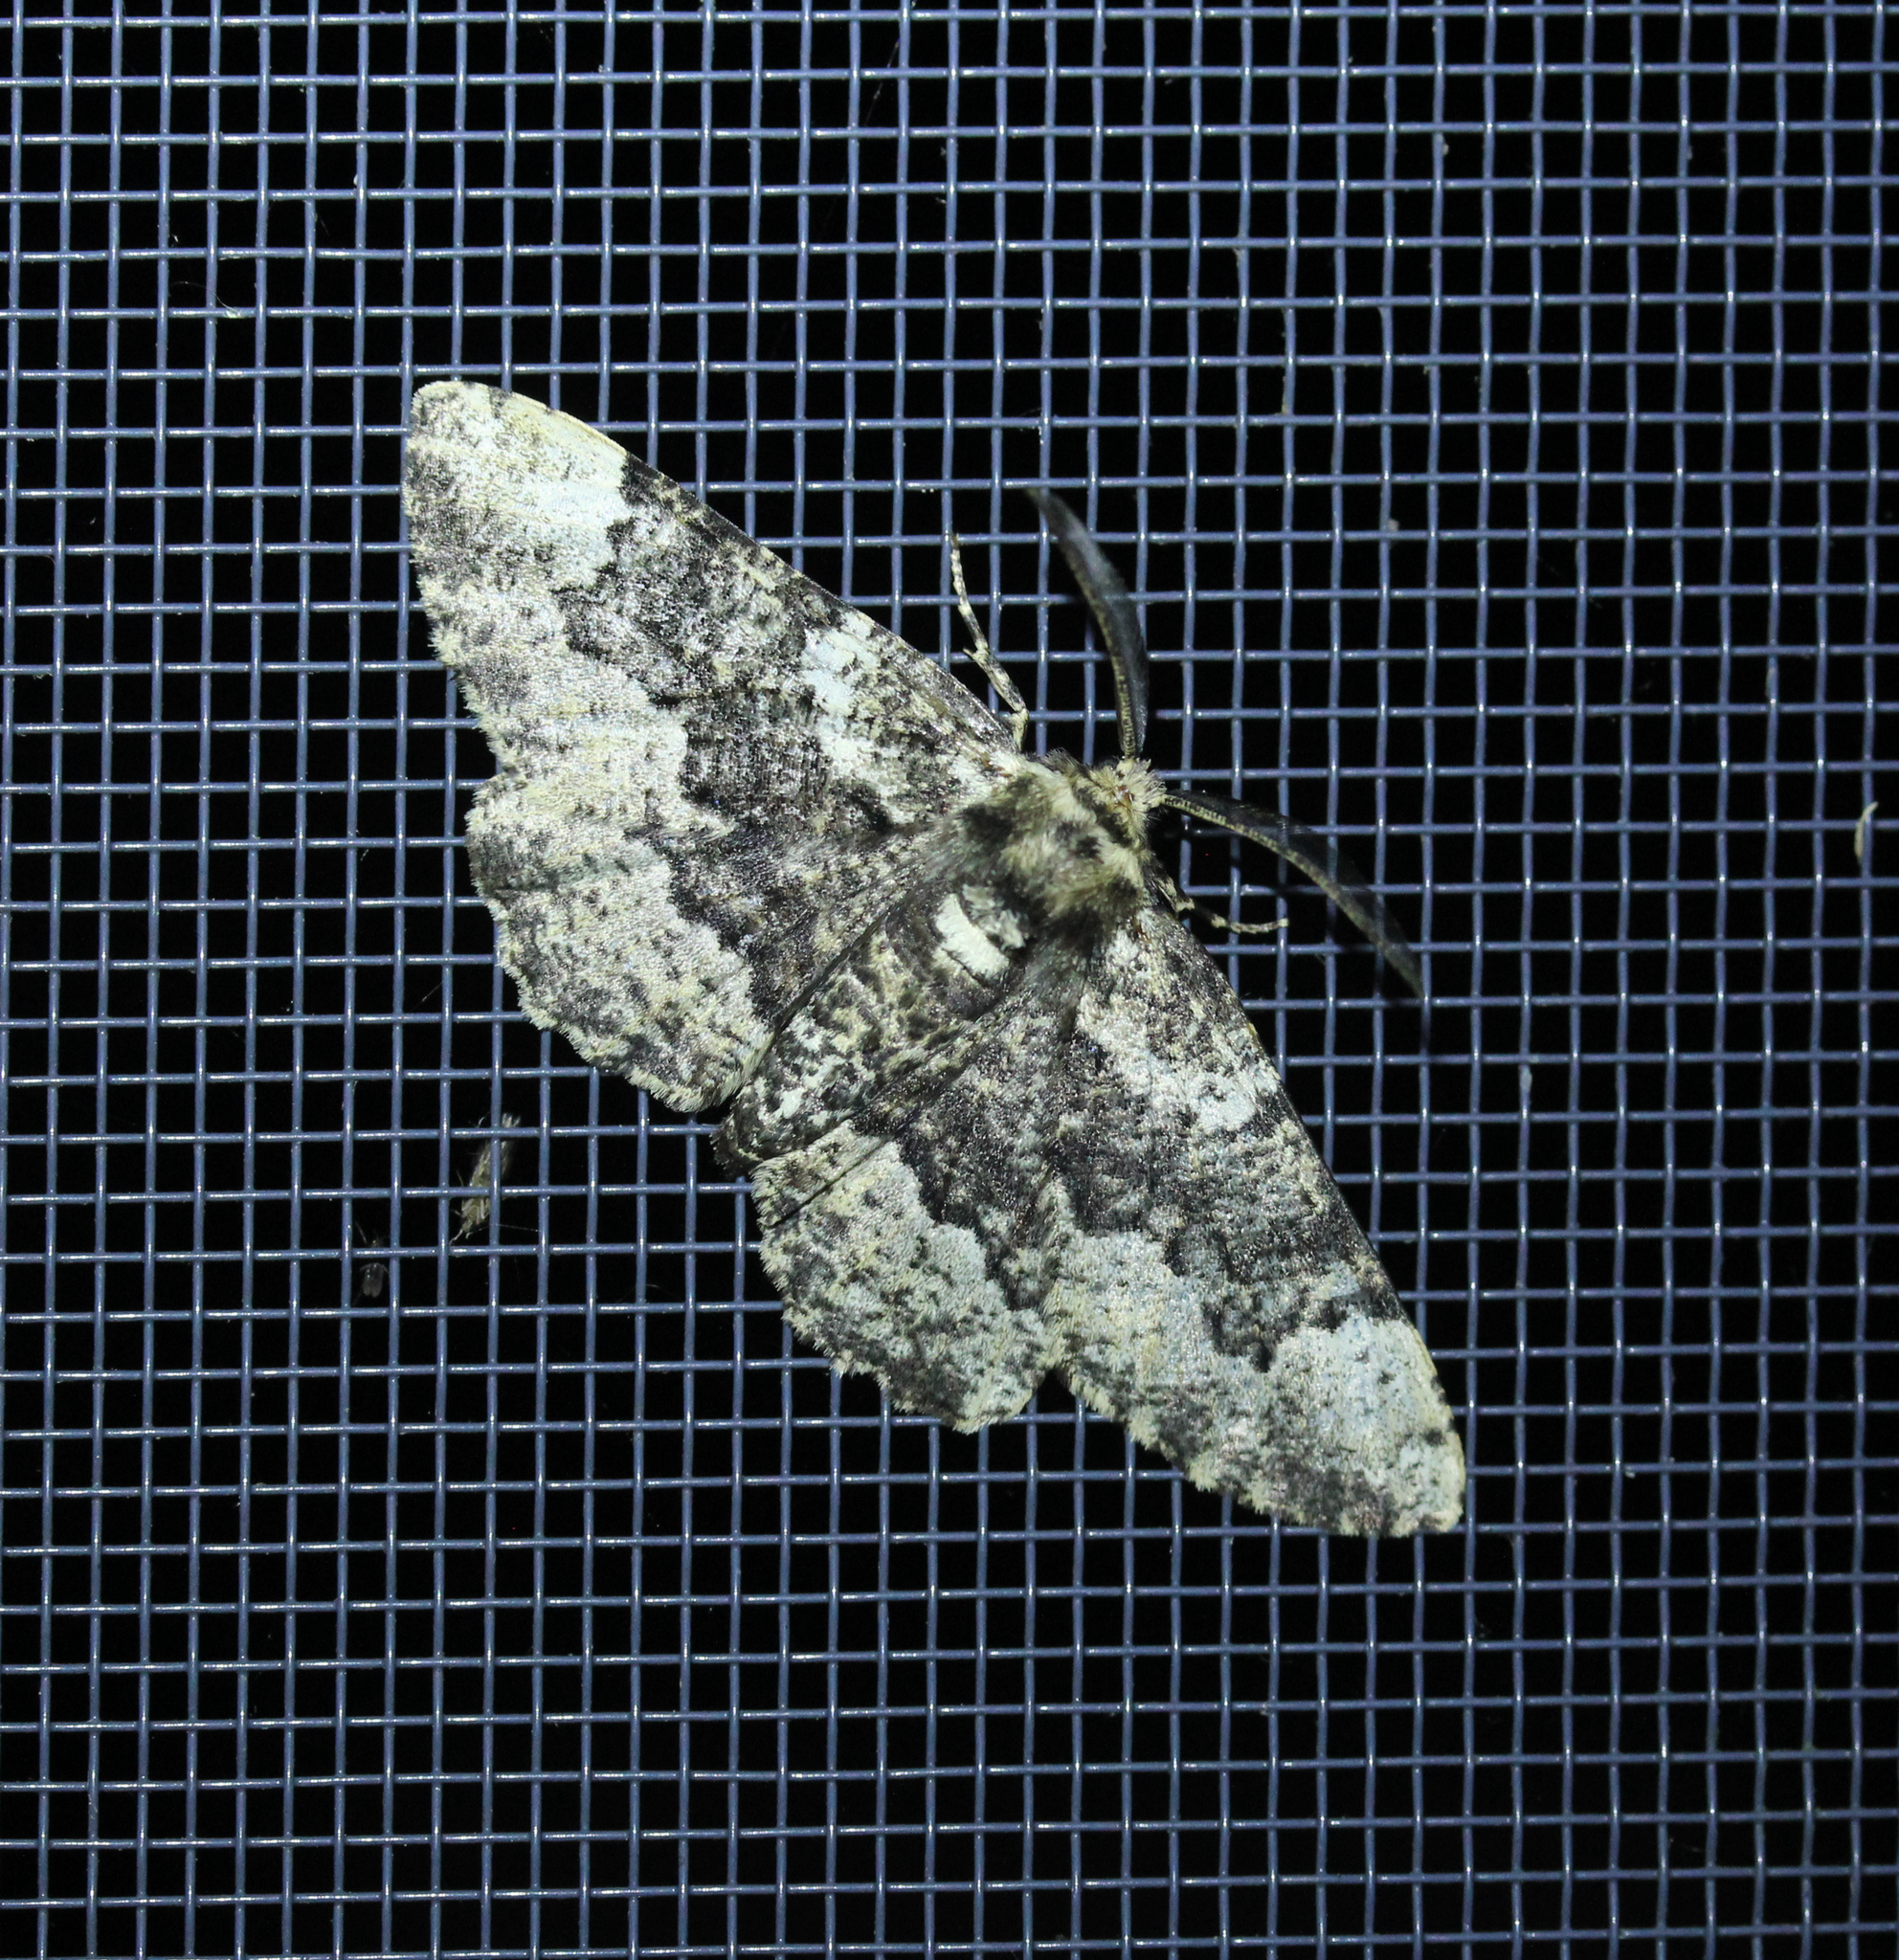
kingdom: Animalia
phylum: Arthropoda
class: Insecta
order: Lepidoptera
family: Geometridae
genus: Phaeoura
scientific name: Phaeoura quernaria
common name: Oak beauty
